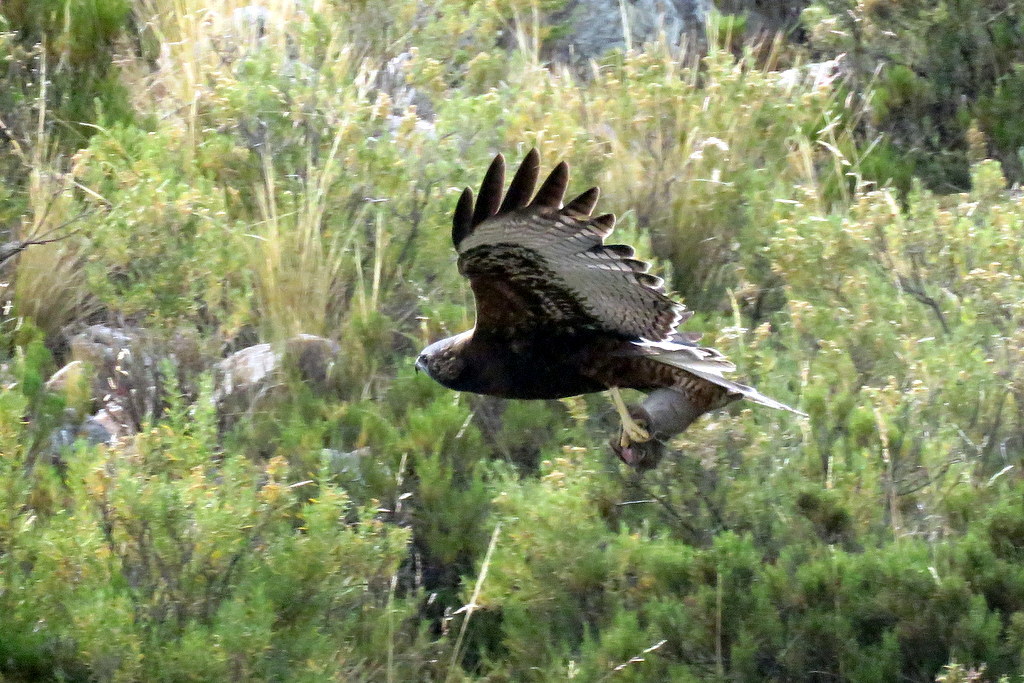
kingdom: Animalia
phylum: Chordata
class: Aves
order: Accipitriformes
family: Accipitridae
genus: Buteo
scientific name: Buteo polyosoma
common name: Variable hawk
